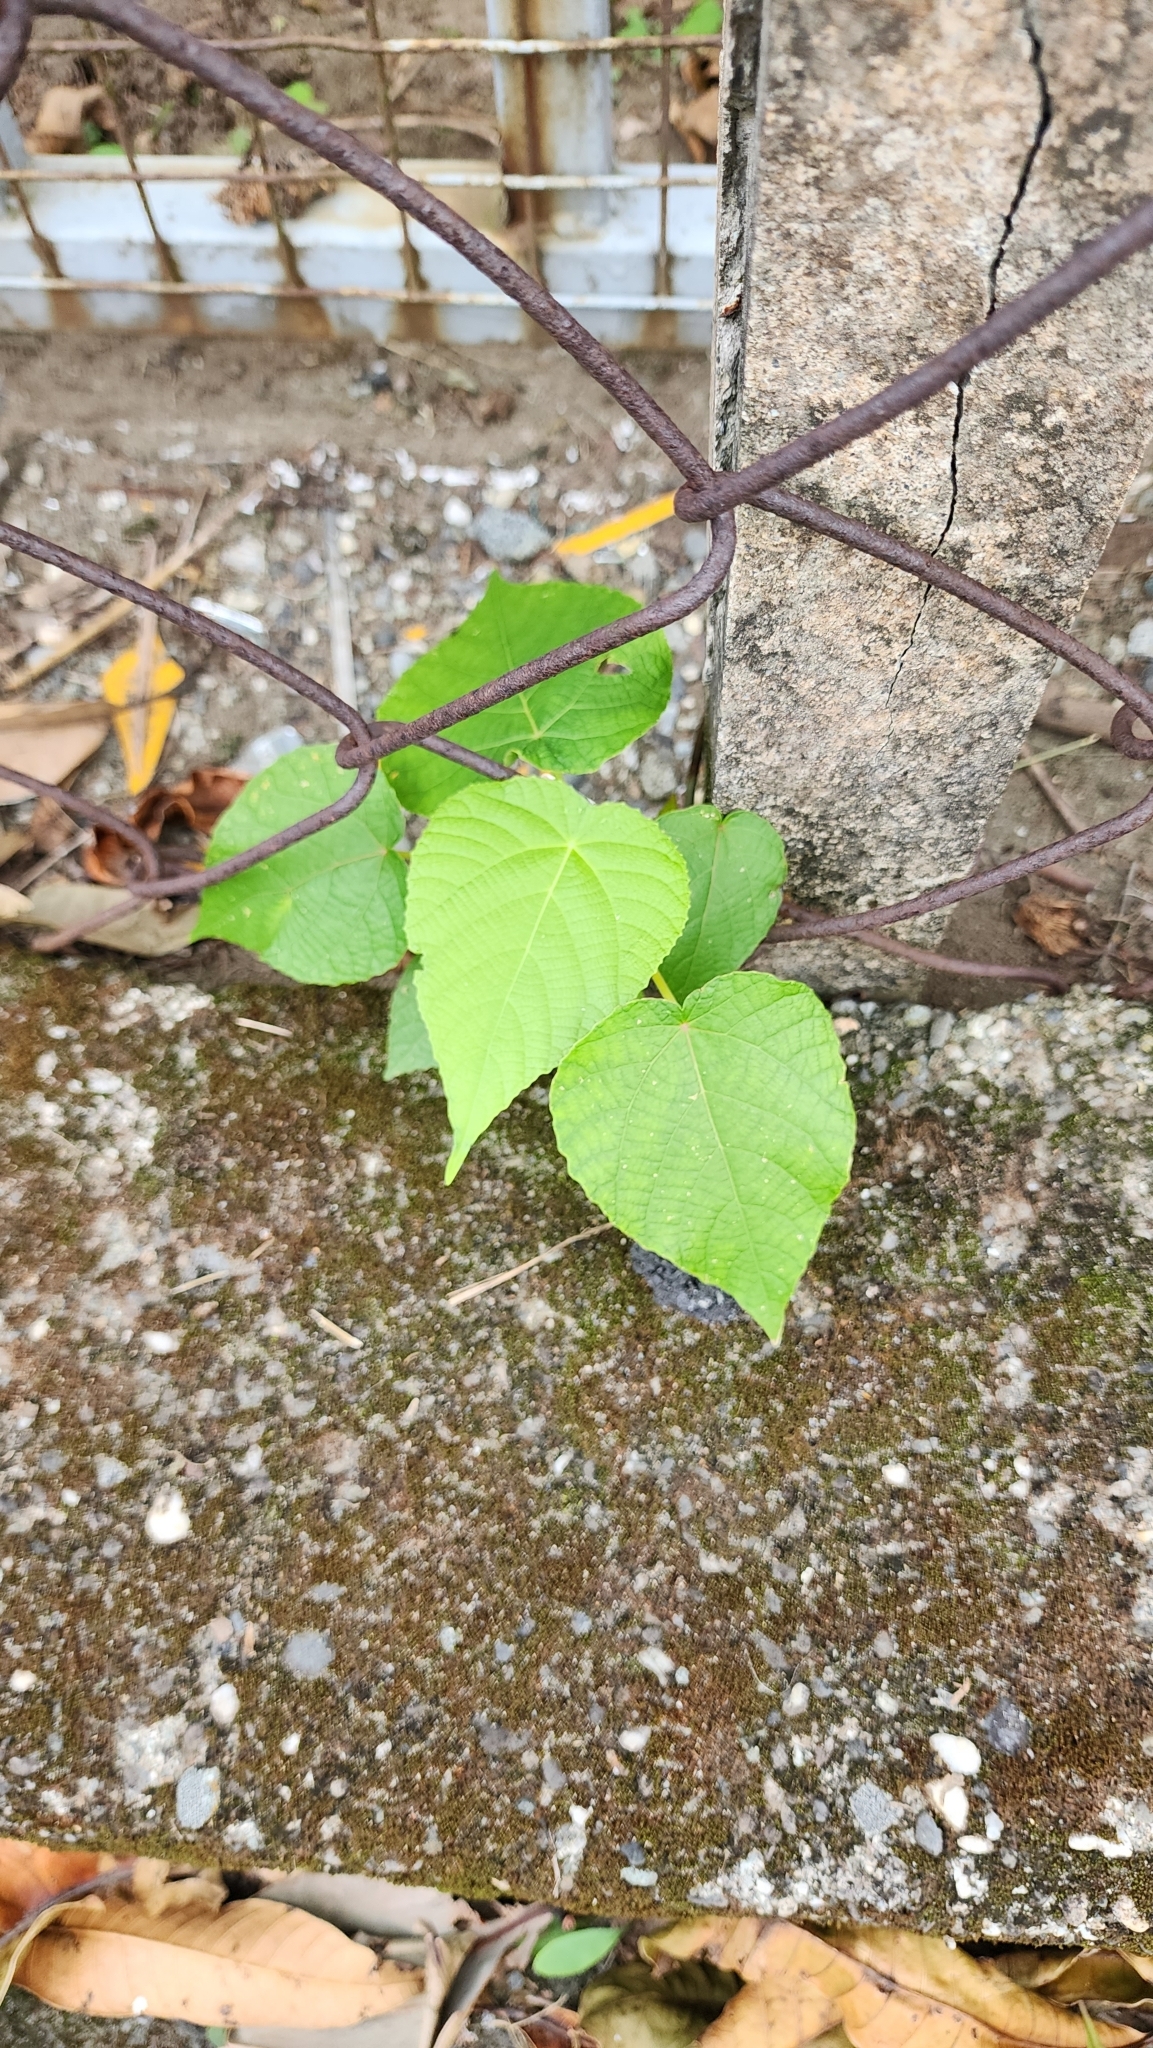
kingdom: Plantae
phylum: Tracheophyta
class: Magnoliopsida
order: Malpighiales
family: Euphorbiaceae
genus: Macaranga
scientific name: Macaranga tanarius
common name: Parasol leaf tree
